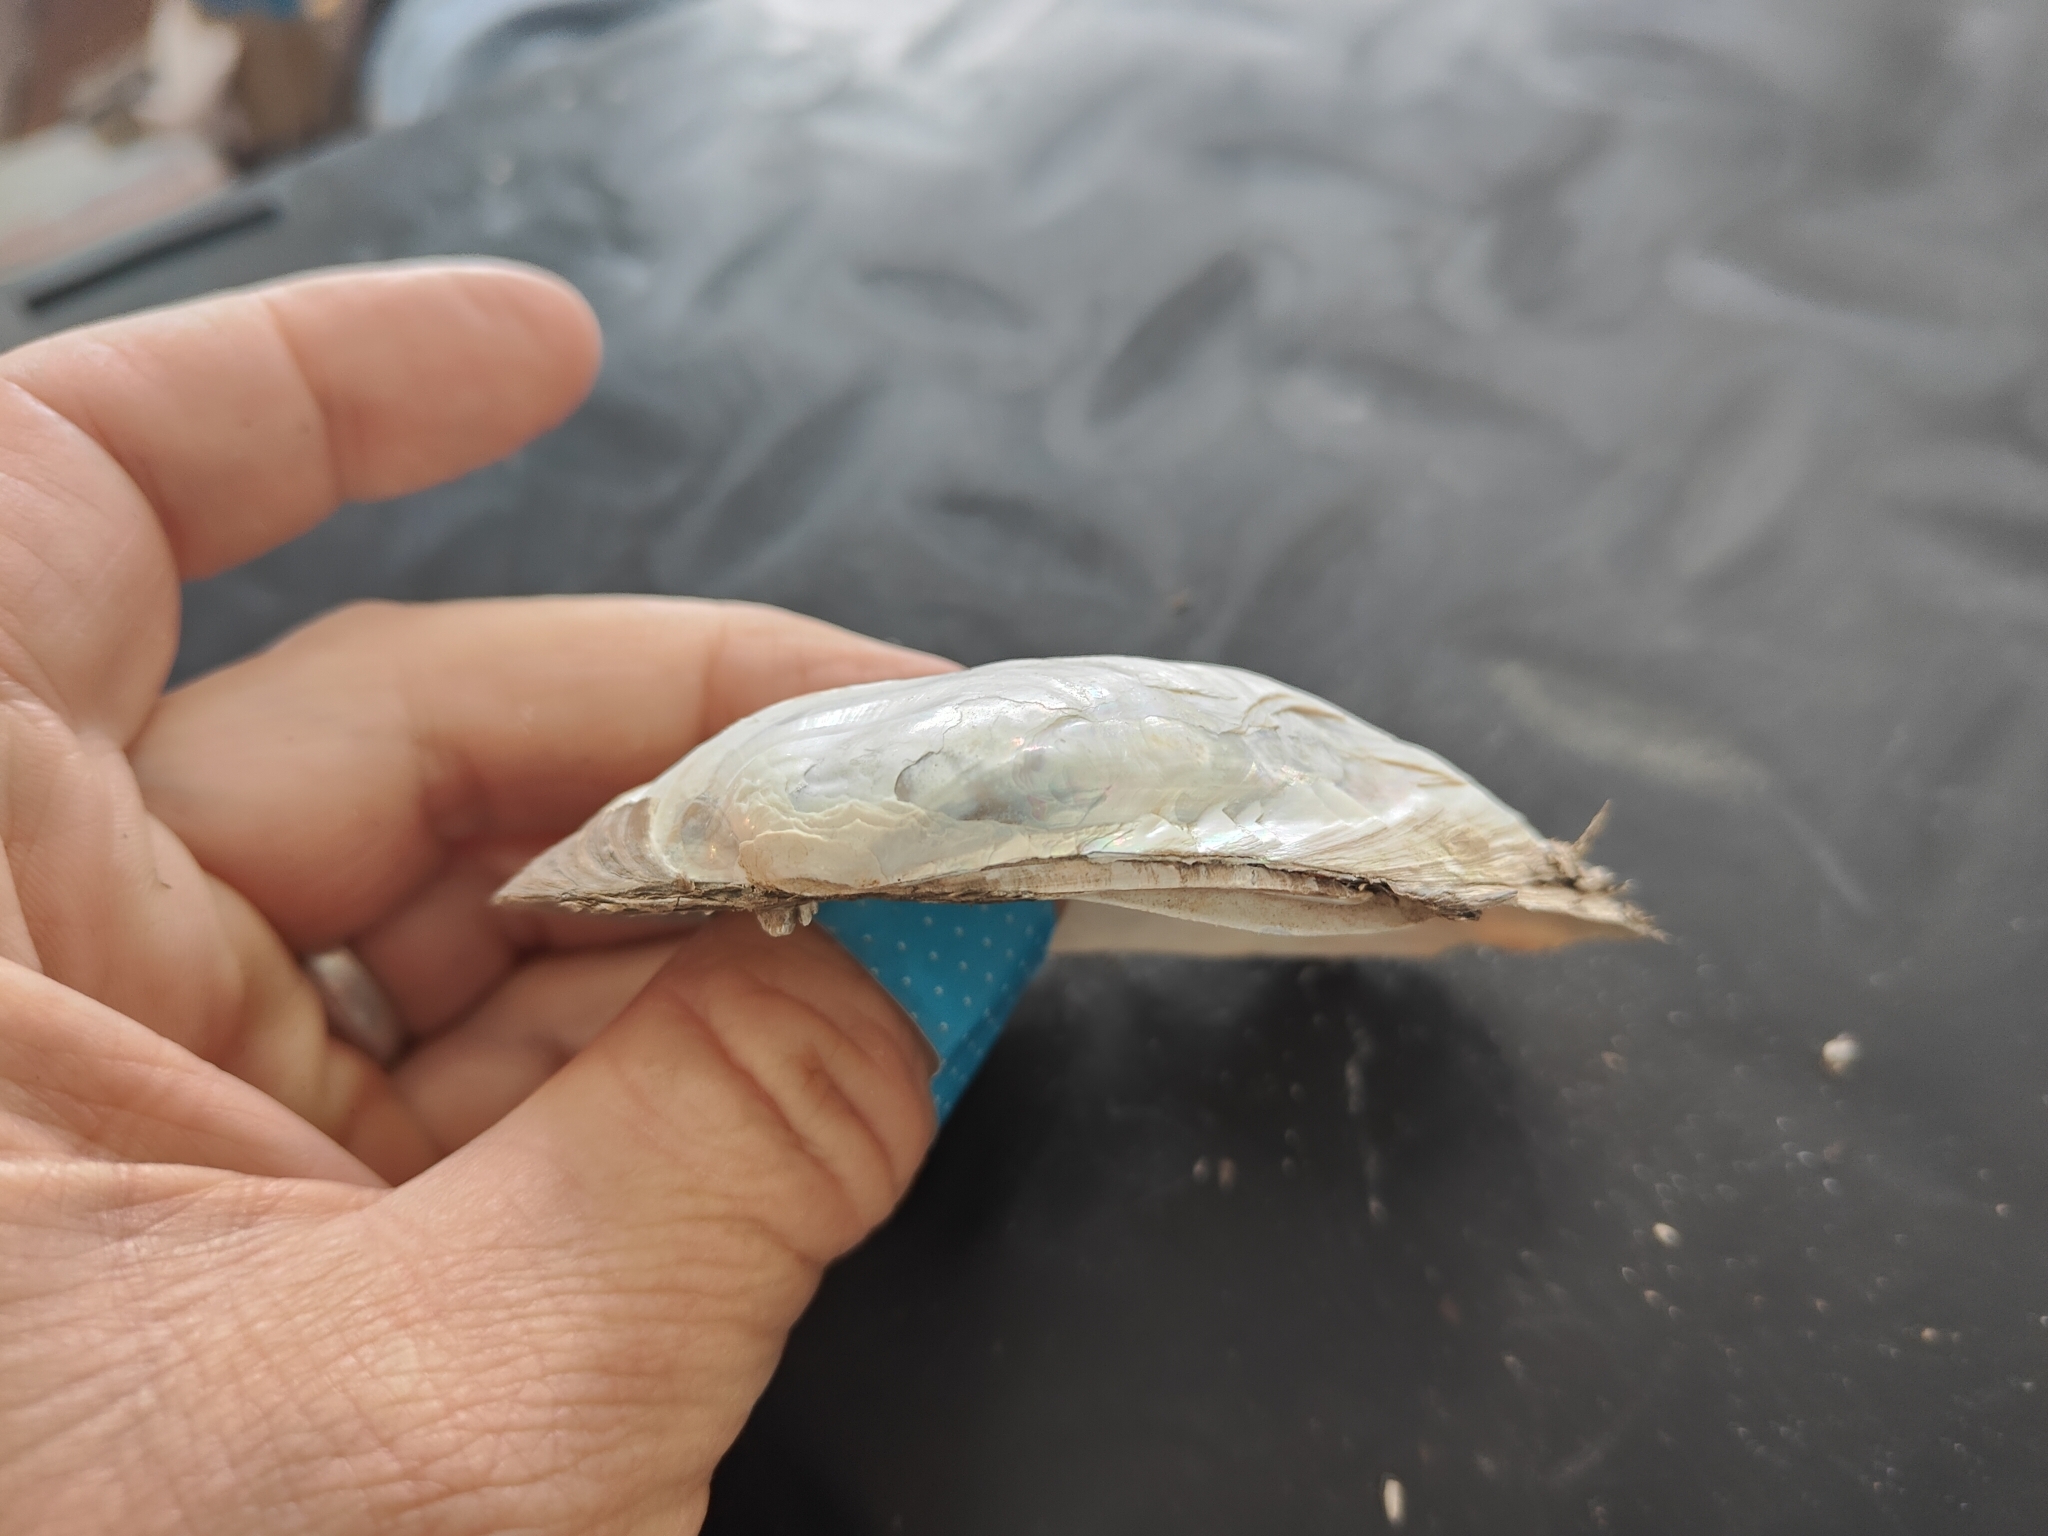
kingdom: Animalia
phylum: Mollusca
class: Bivalvia
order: Unionida
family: Unionidae
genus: Lampsilis
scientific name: Lampsilis siliquoidea
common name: Fatmucket
